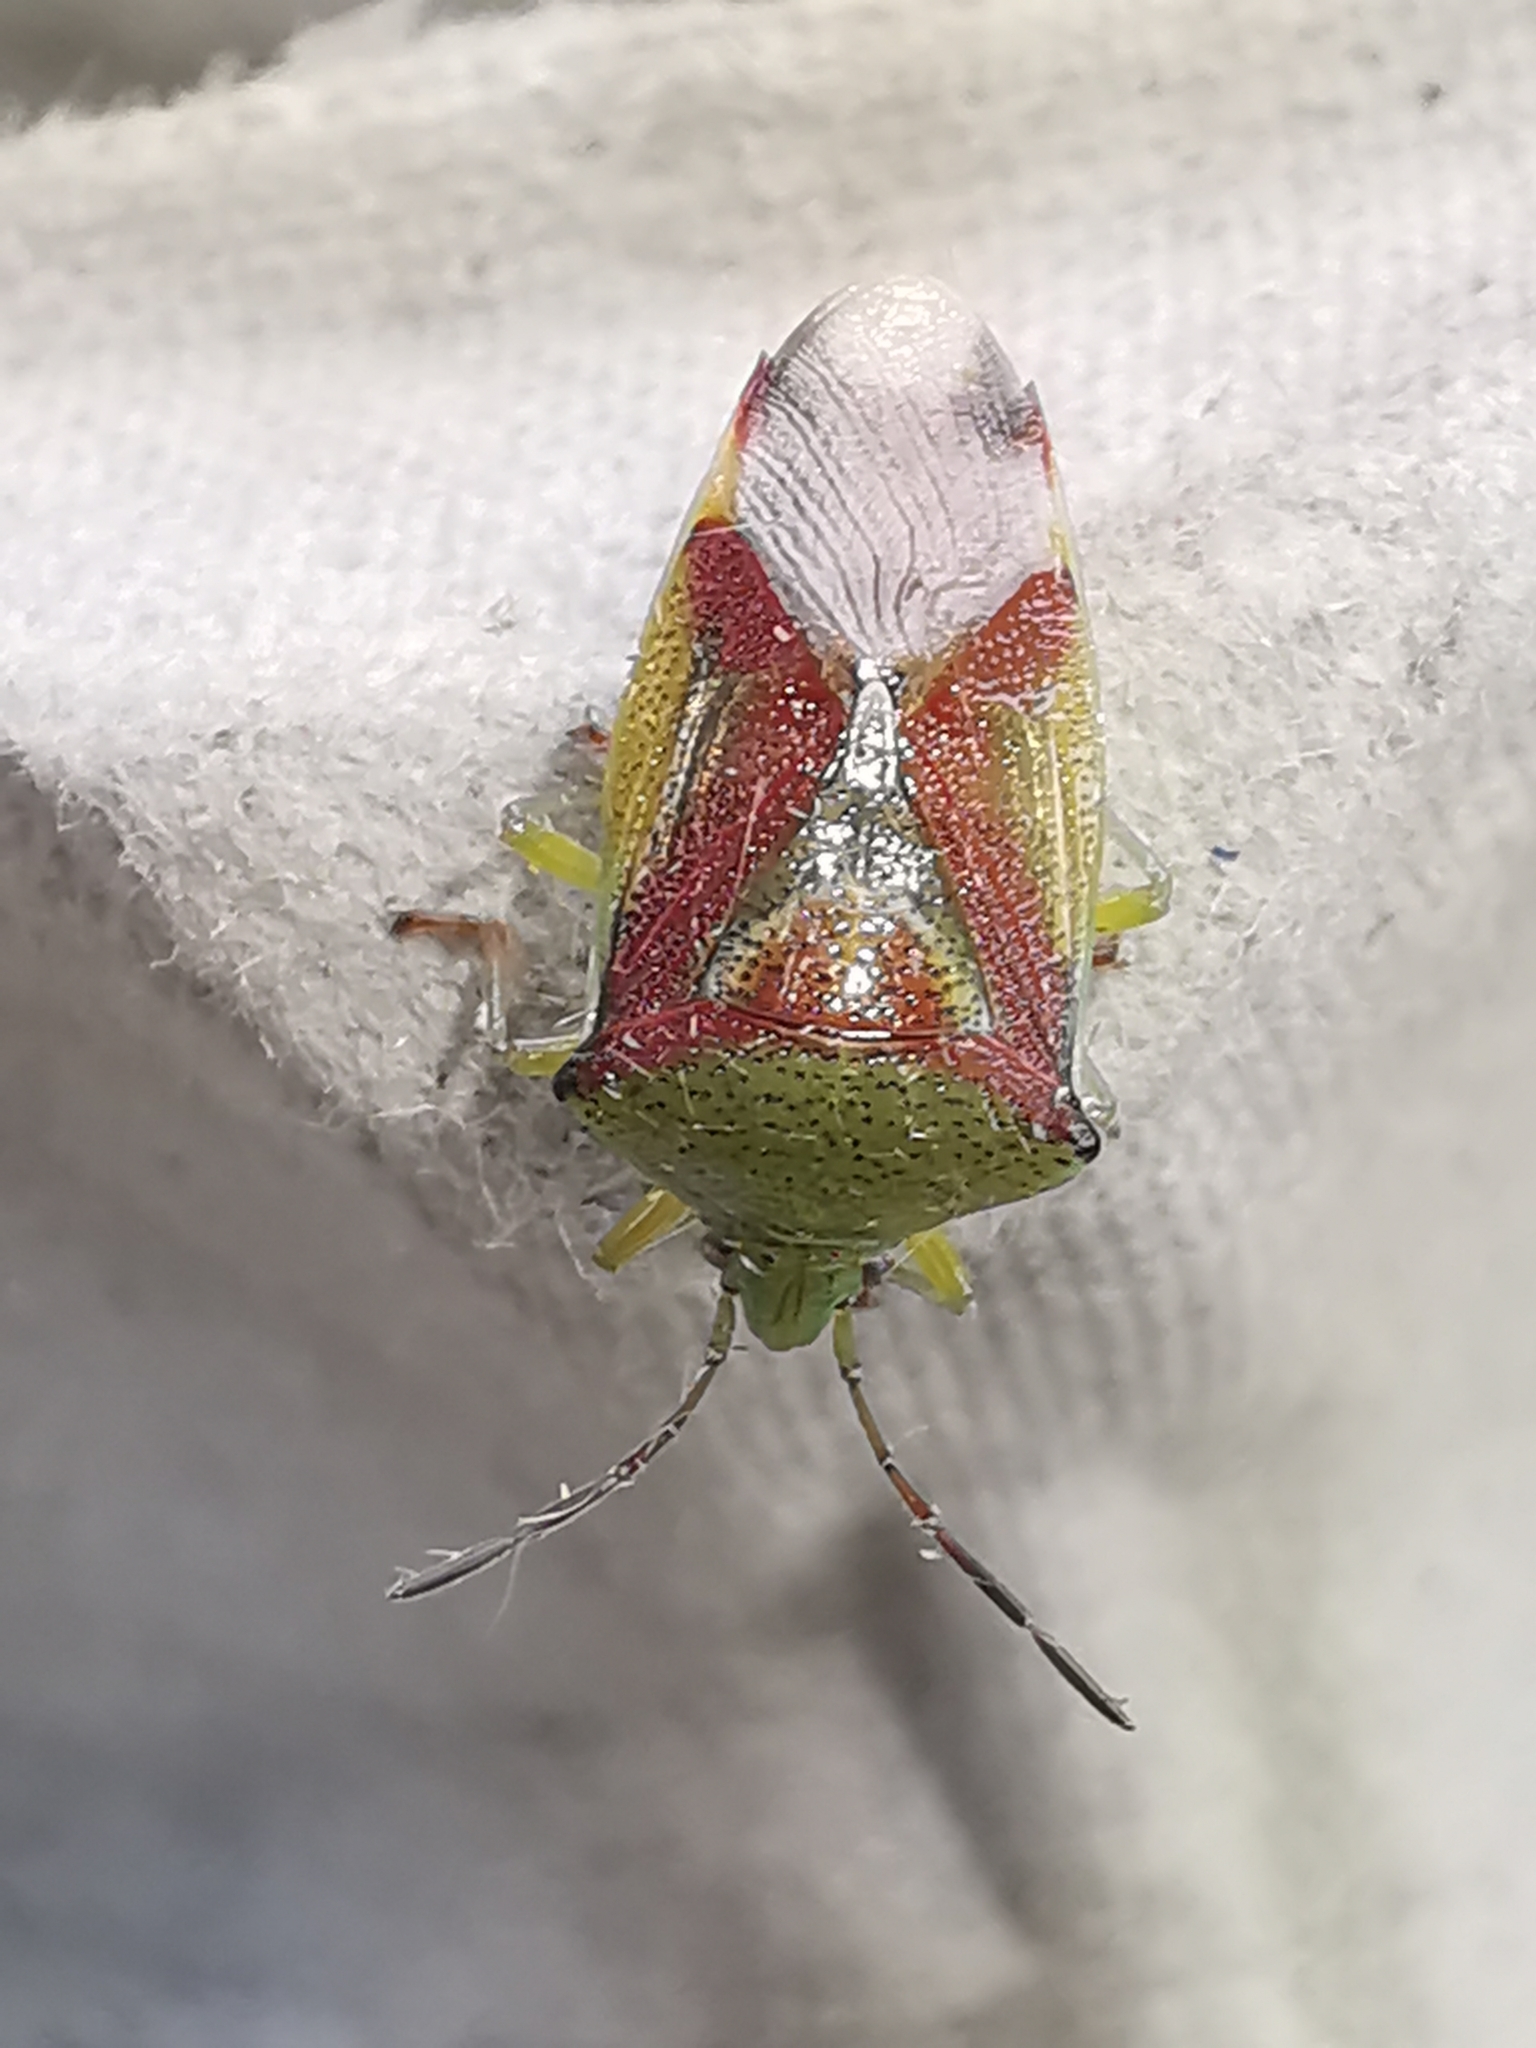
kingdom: Animalia
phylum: Arthropoda
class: Insecta
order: Hemiptera
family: Acanthosomatidae
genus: Elasmostethus
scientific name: Elasmostethus interstinctus
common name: Birch shieldbug
